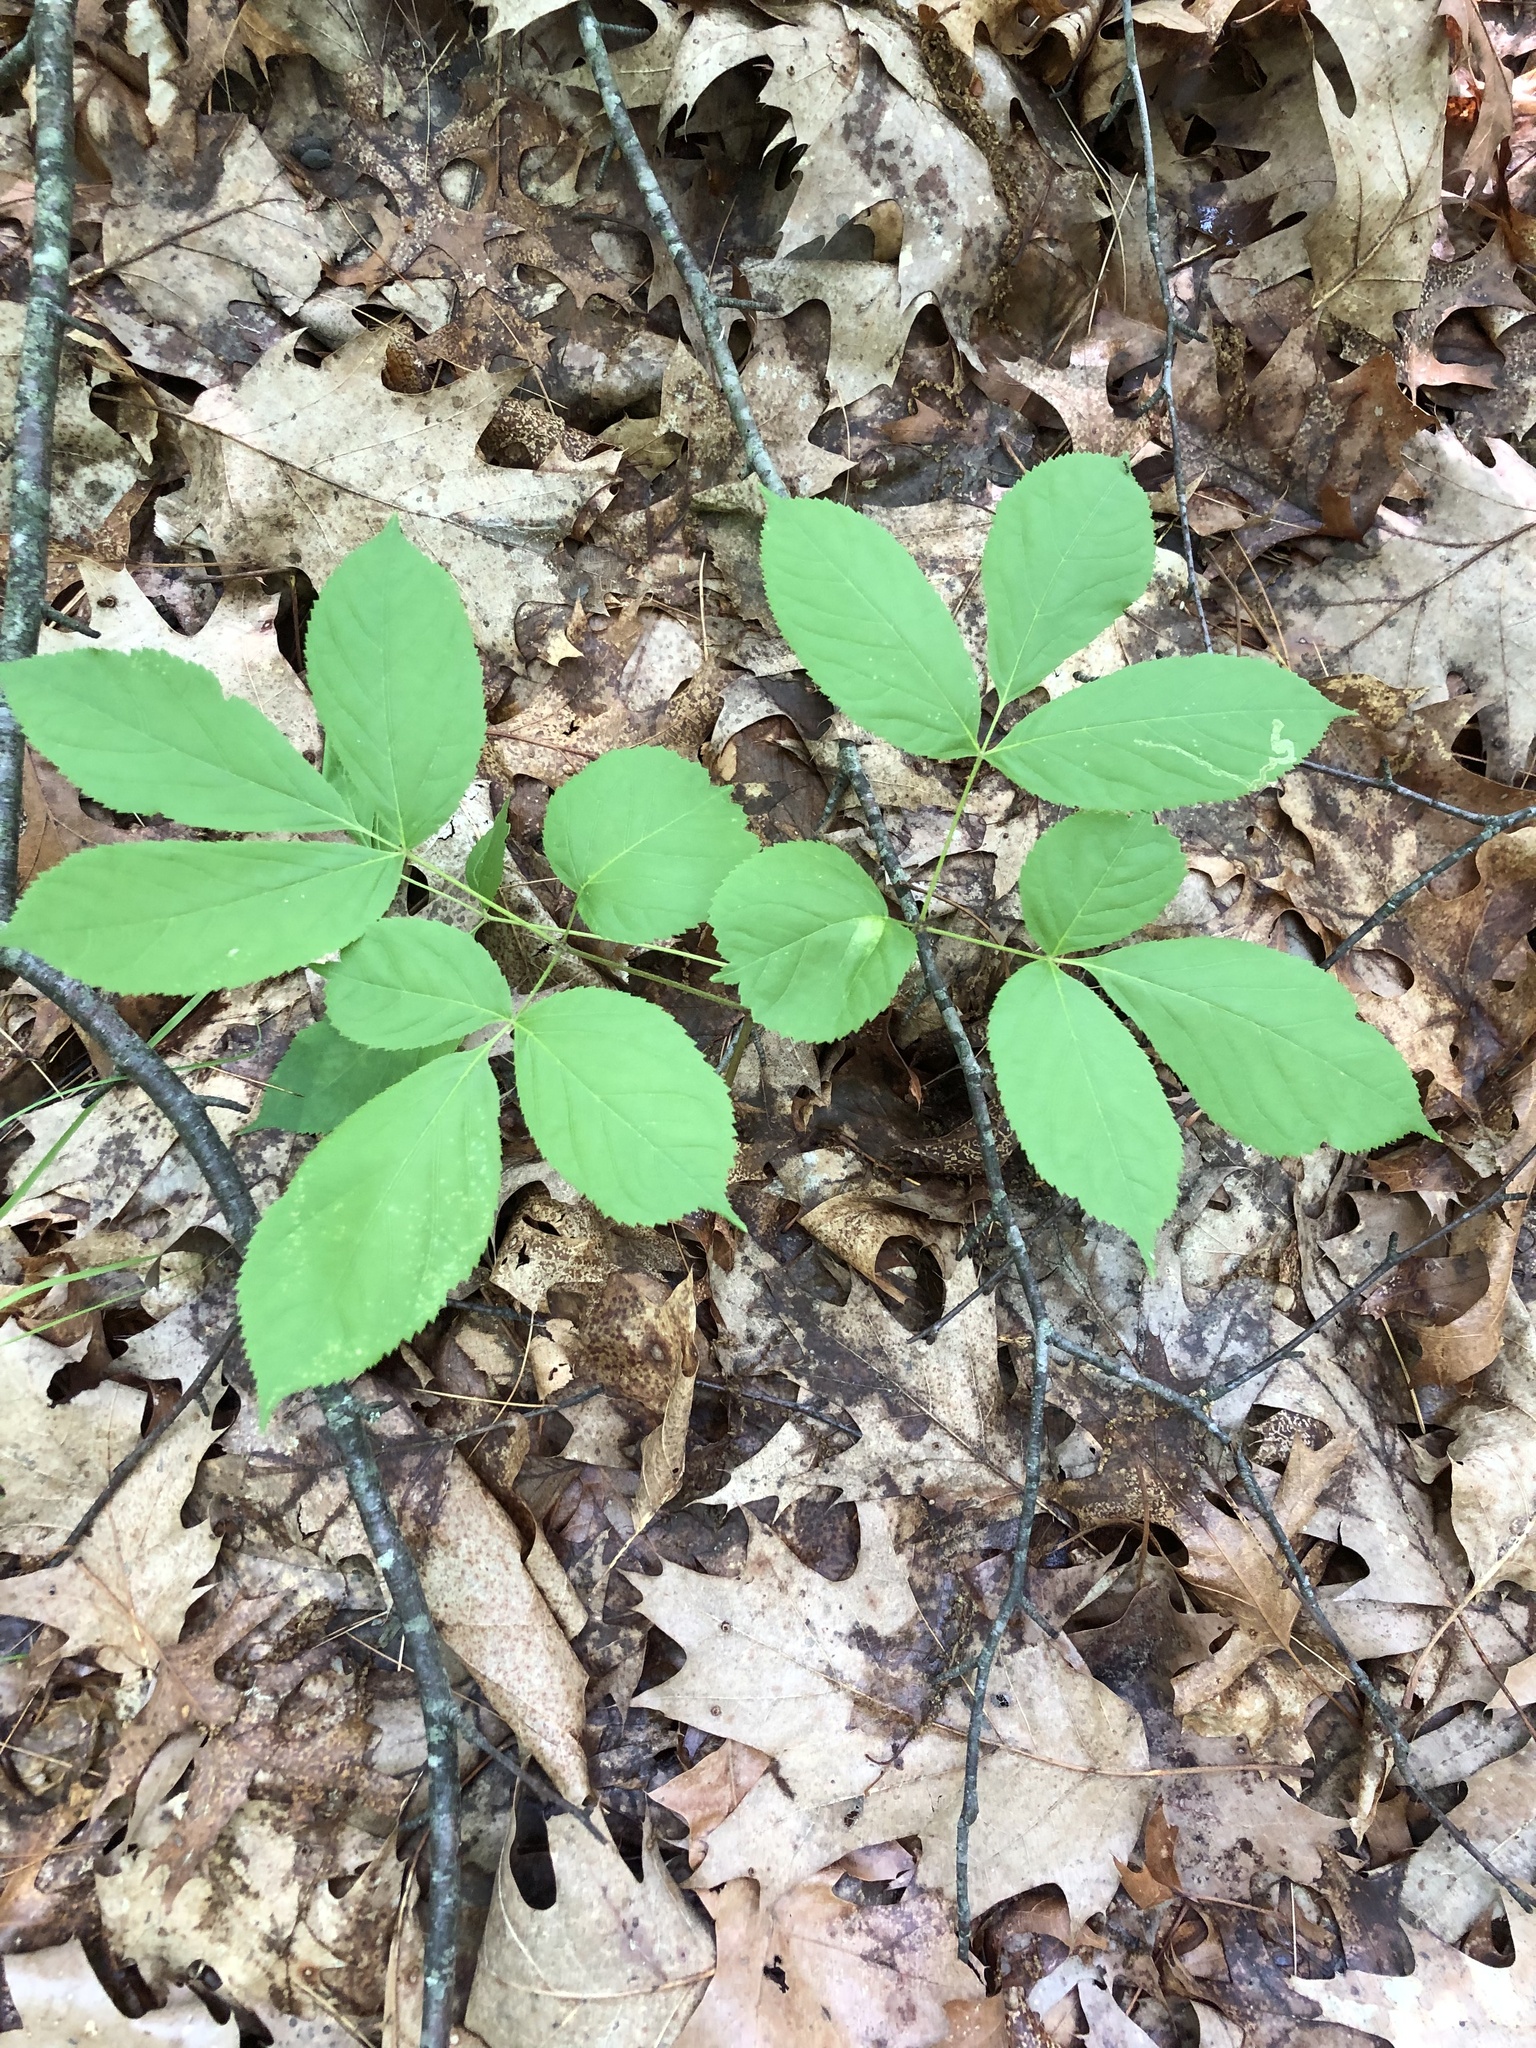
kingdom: Plantae
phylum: Tracheophyta
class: Magnoliopsida
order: Apiales
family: Araliaceae
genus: Aralia
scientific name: Aralia nudicaulis
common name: Wild sarsaparilla
